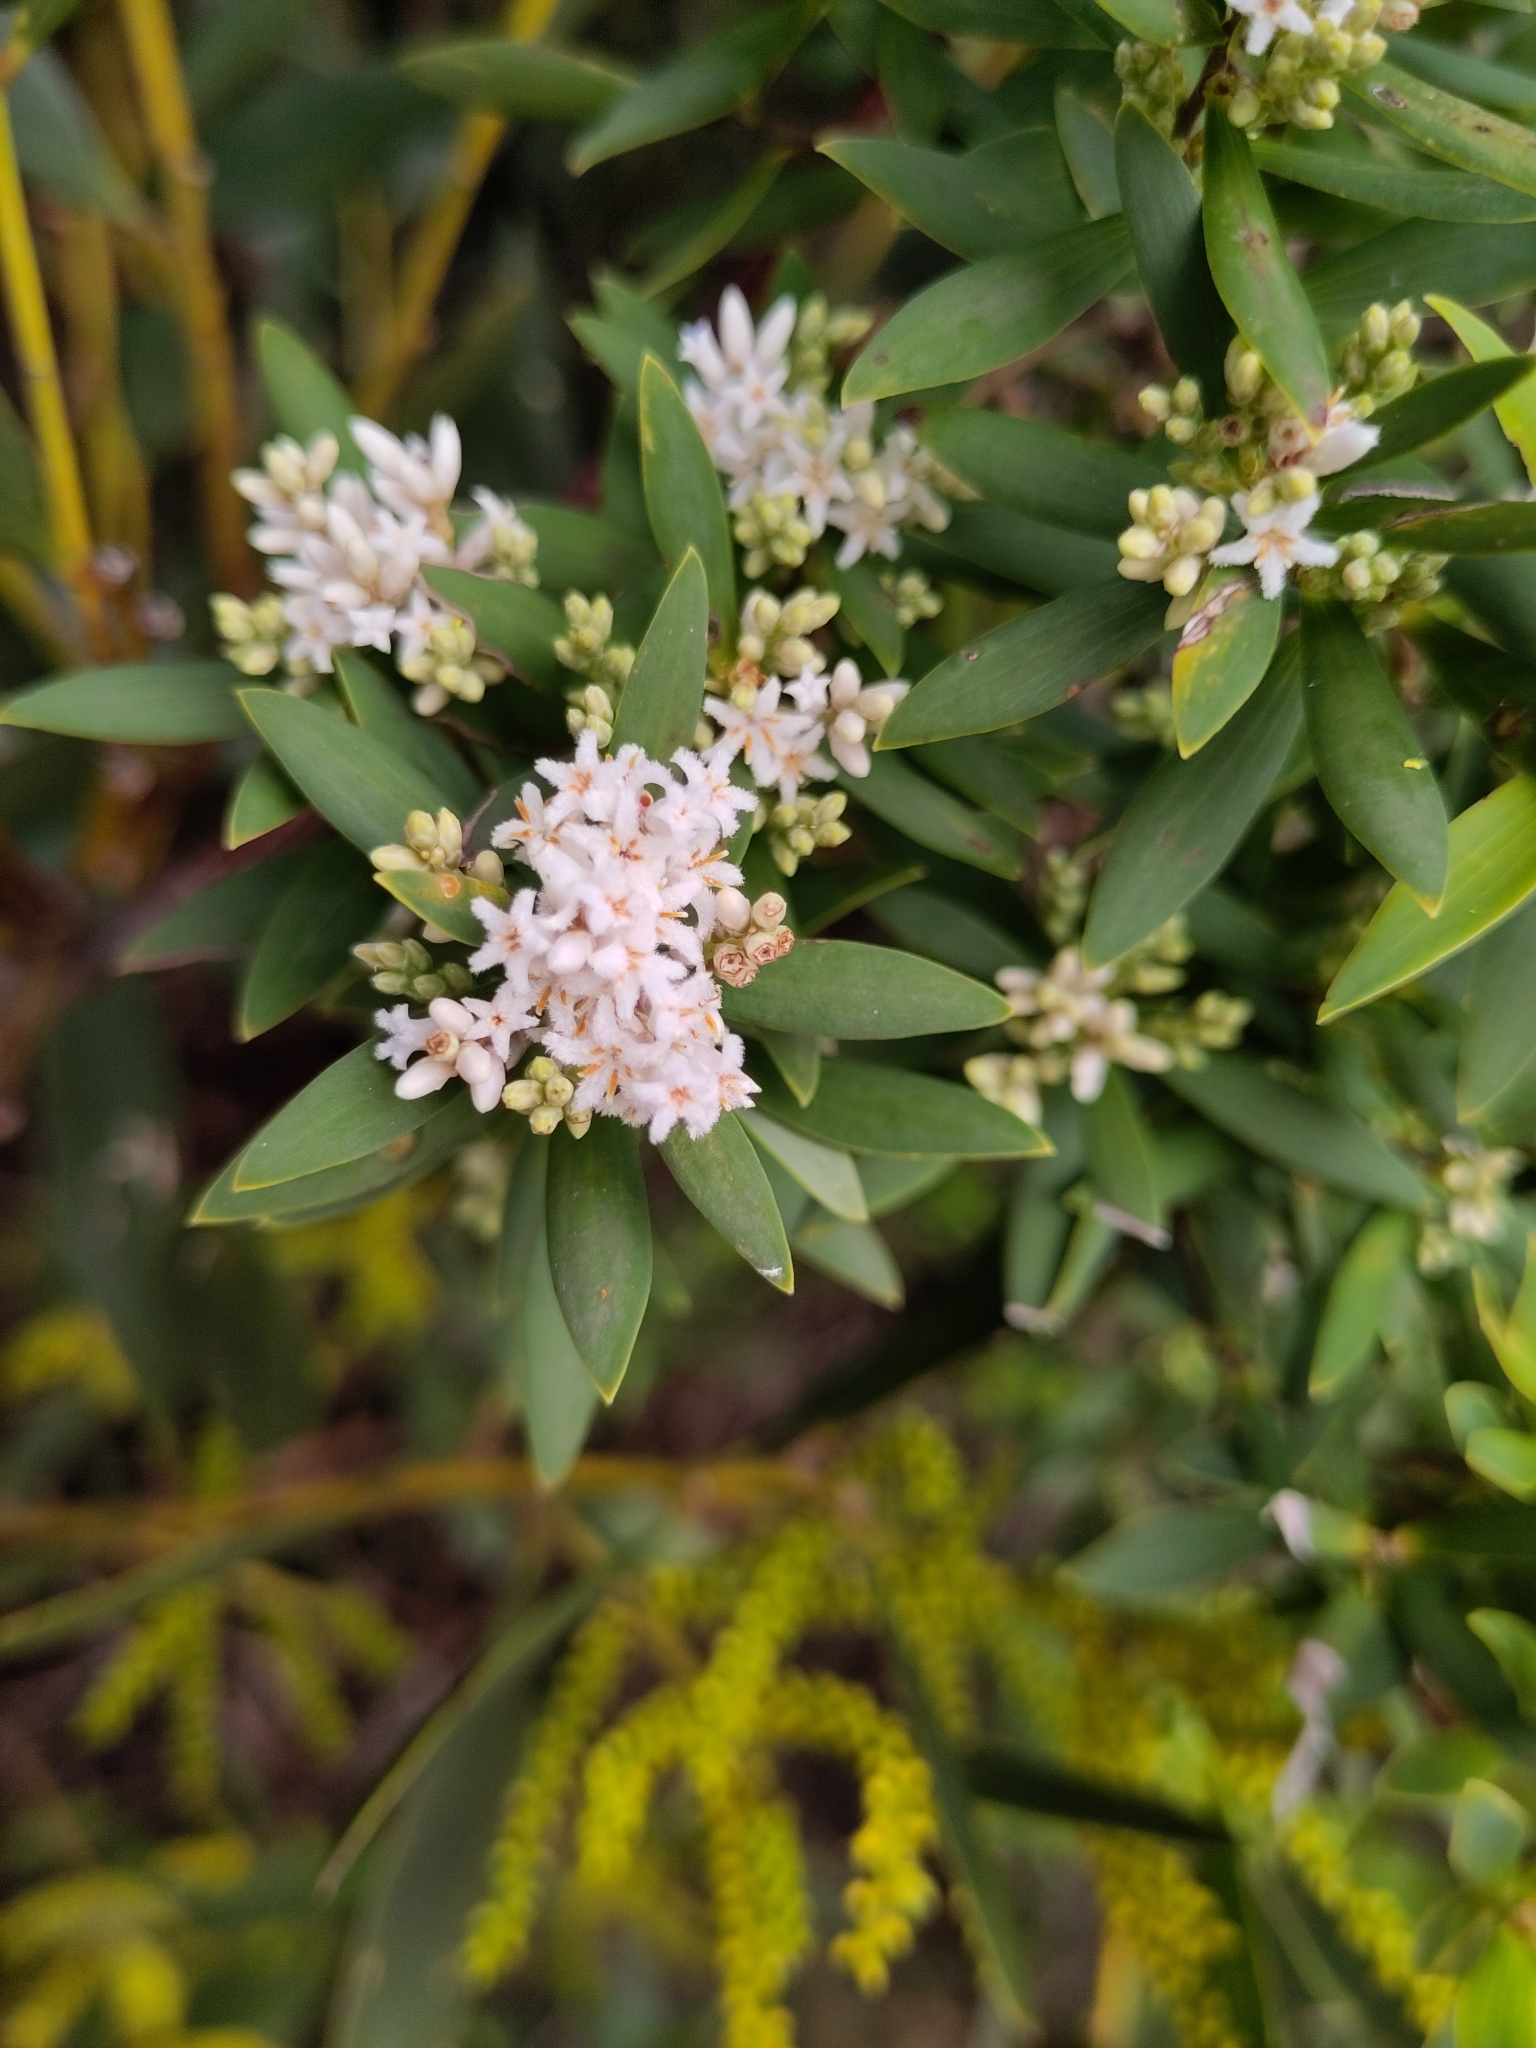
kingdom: Plantae
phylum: Tracheophyta
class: Magnoliopsida
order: Ericales
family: Ericaceae
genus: Leptecophylla
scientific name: Leptecophylla parvifolia
